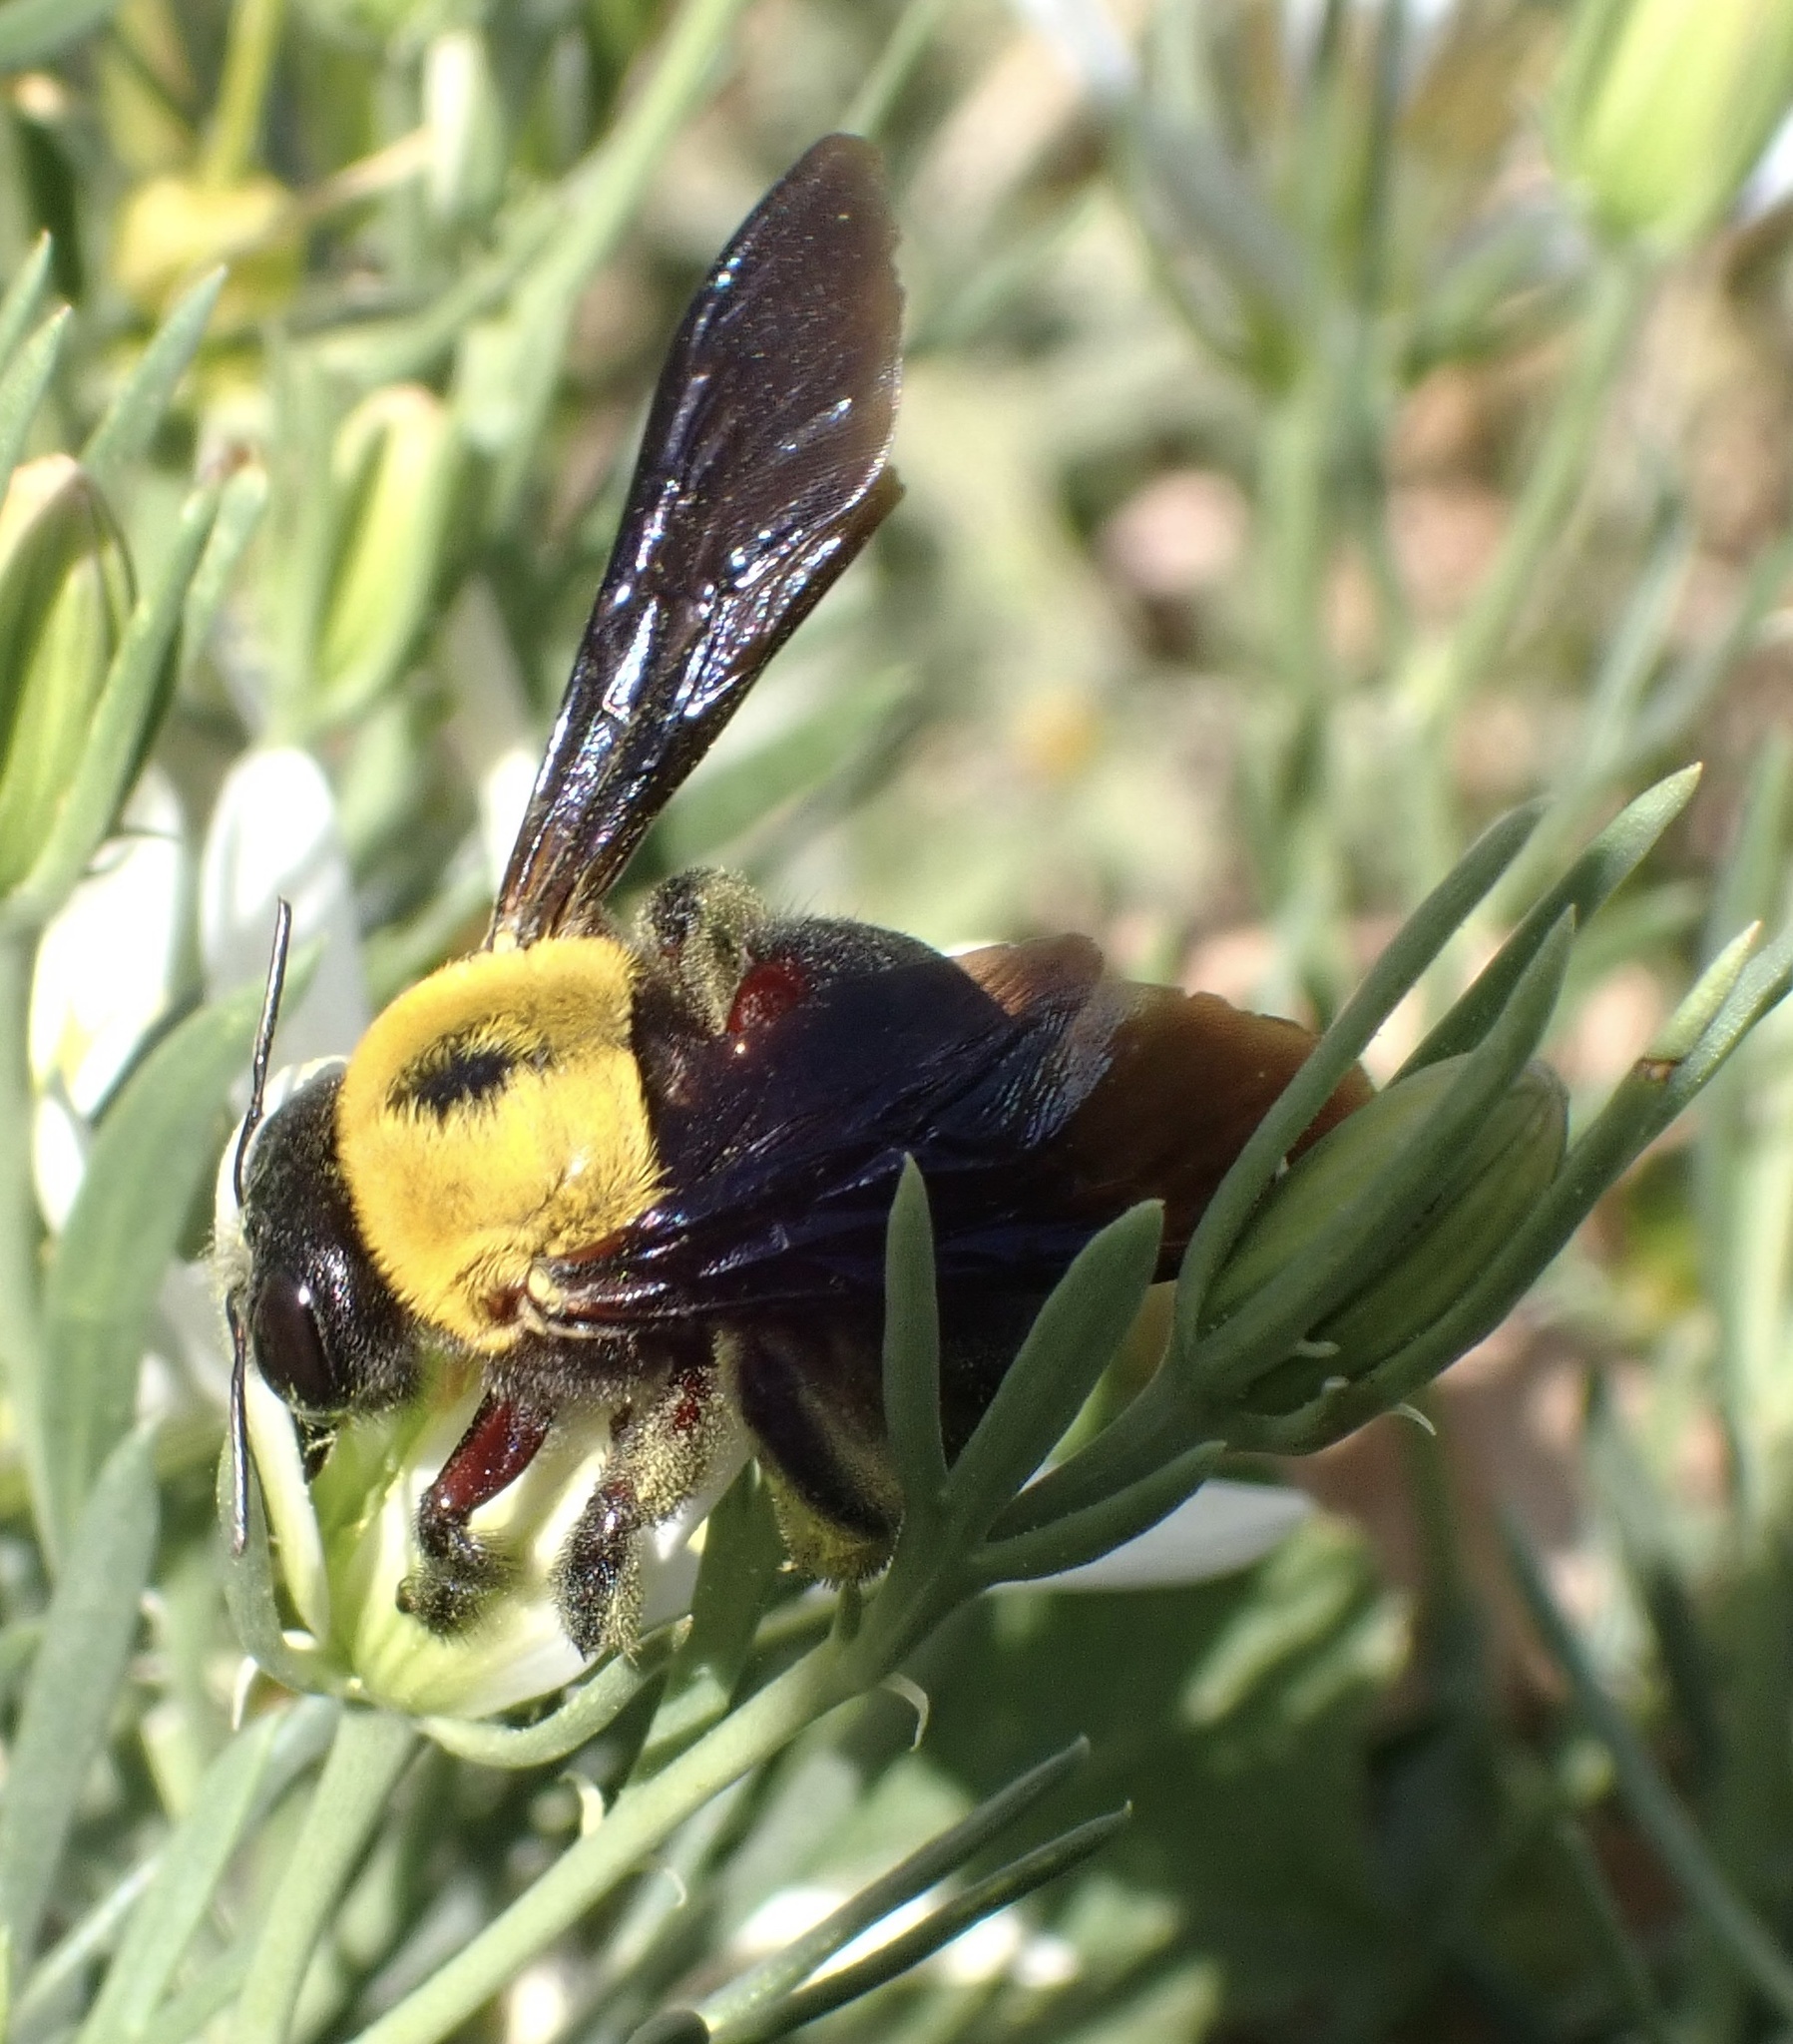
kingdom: Animalia
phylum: Arthropoda
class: Insecta
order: Hymenoptera
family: Apidae
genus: Xylocopa
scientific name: Xylocopa pubescens
